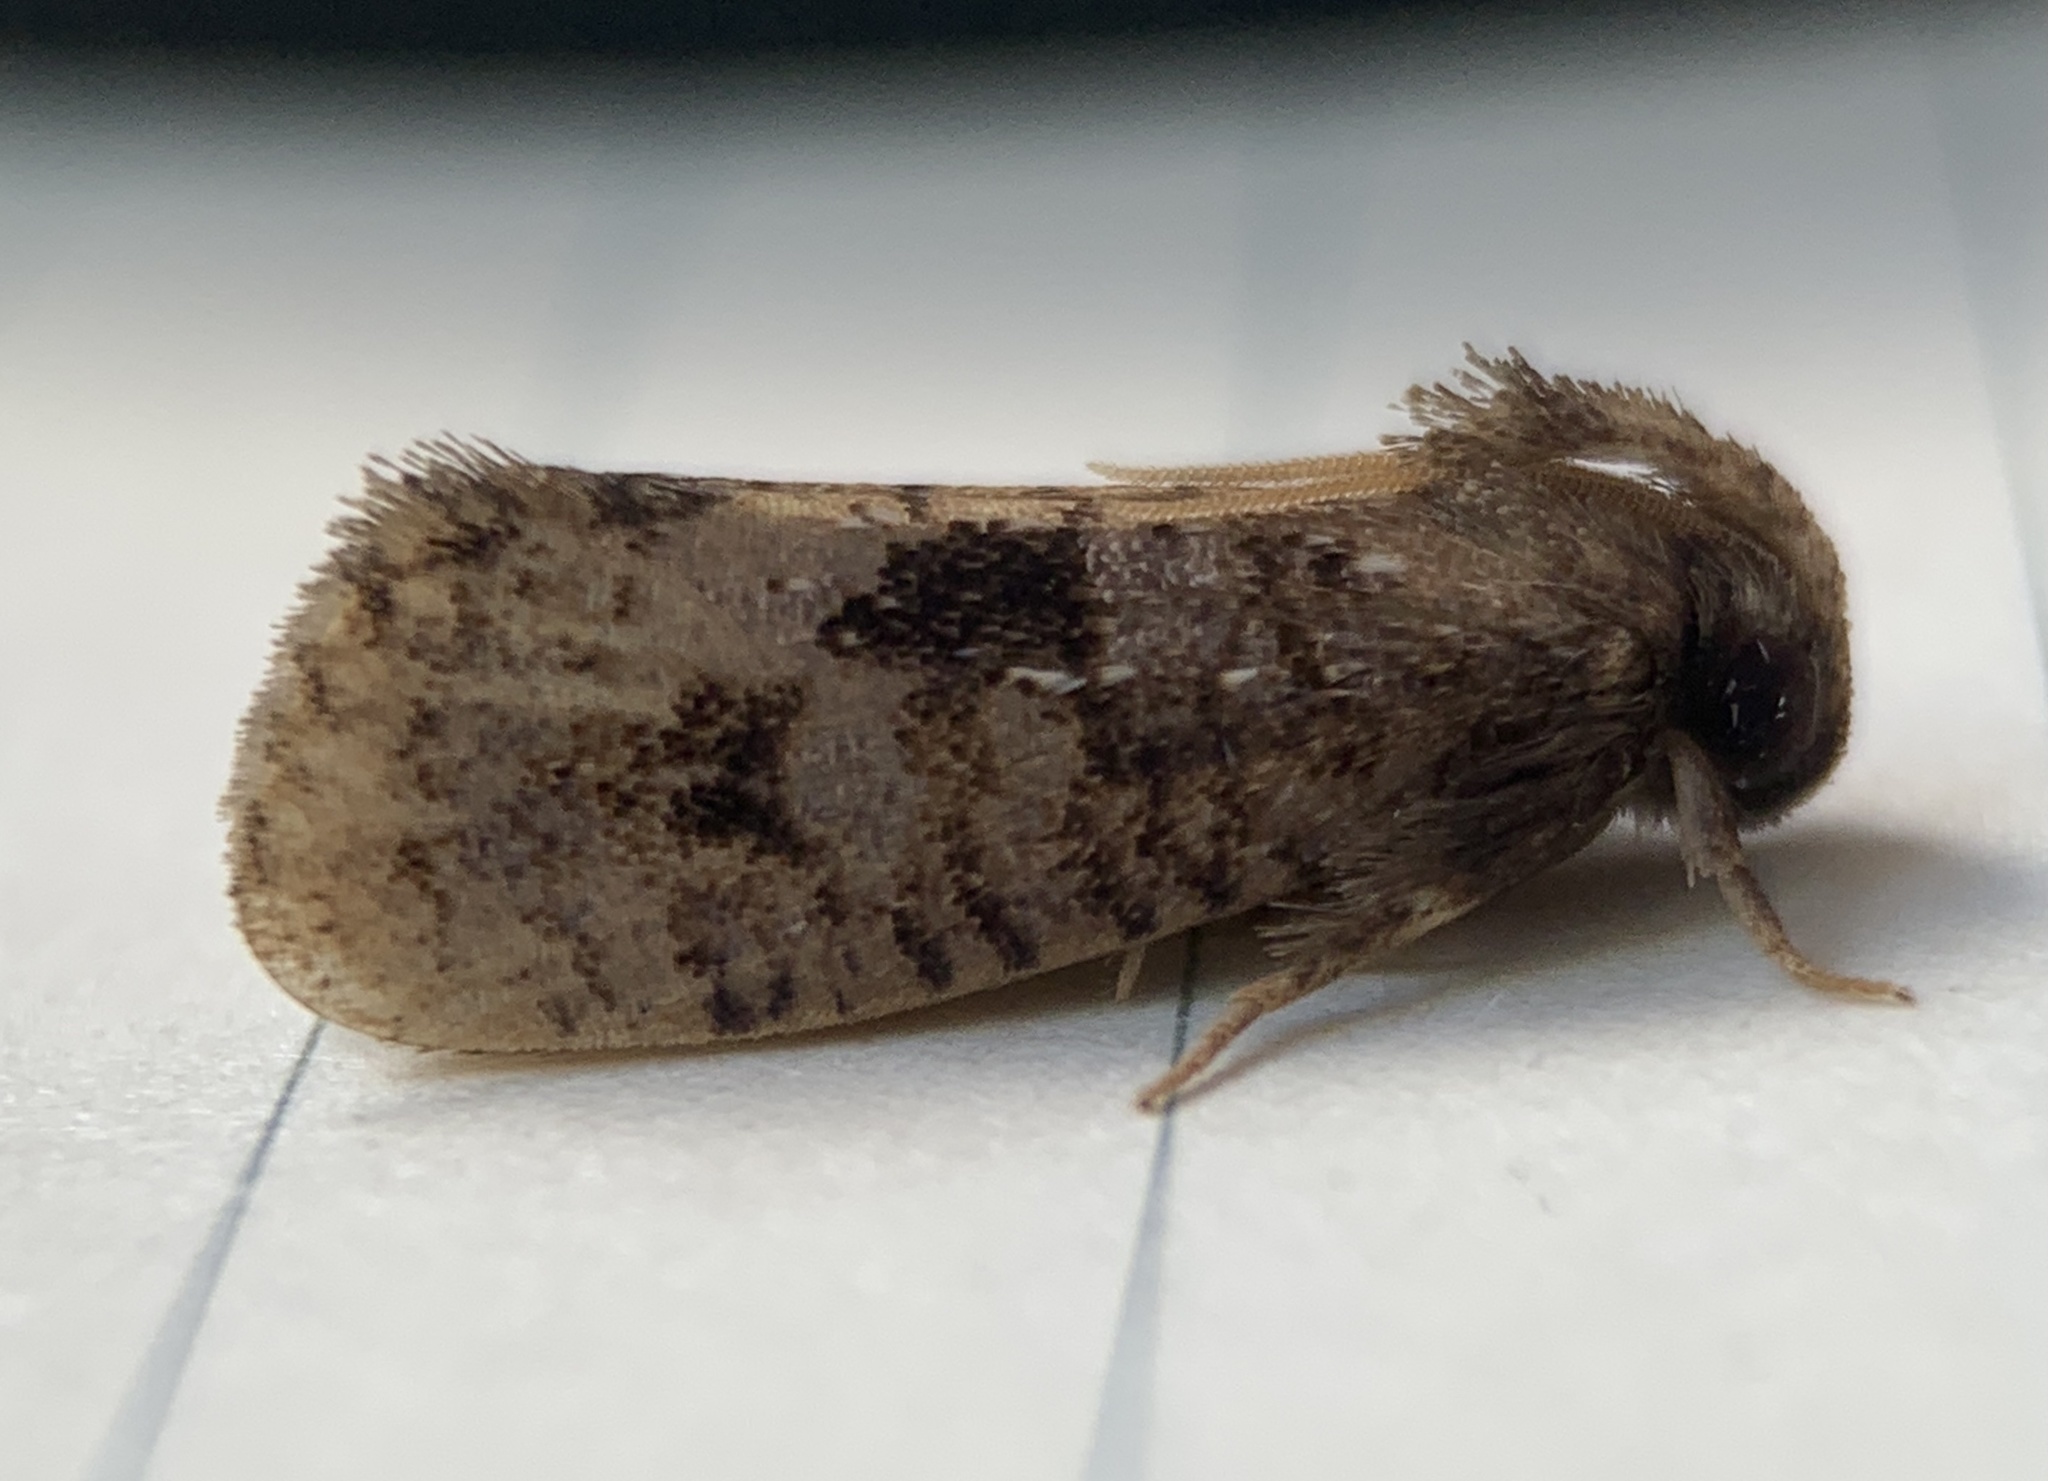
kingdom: Animalia
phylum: Arthropoda
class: Insecta
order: Lepidoptera
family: Tineidae
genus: Acrolophus
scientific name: Acrolophus propinqua
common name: Walsingham's grass tubeworm moth
